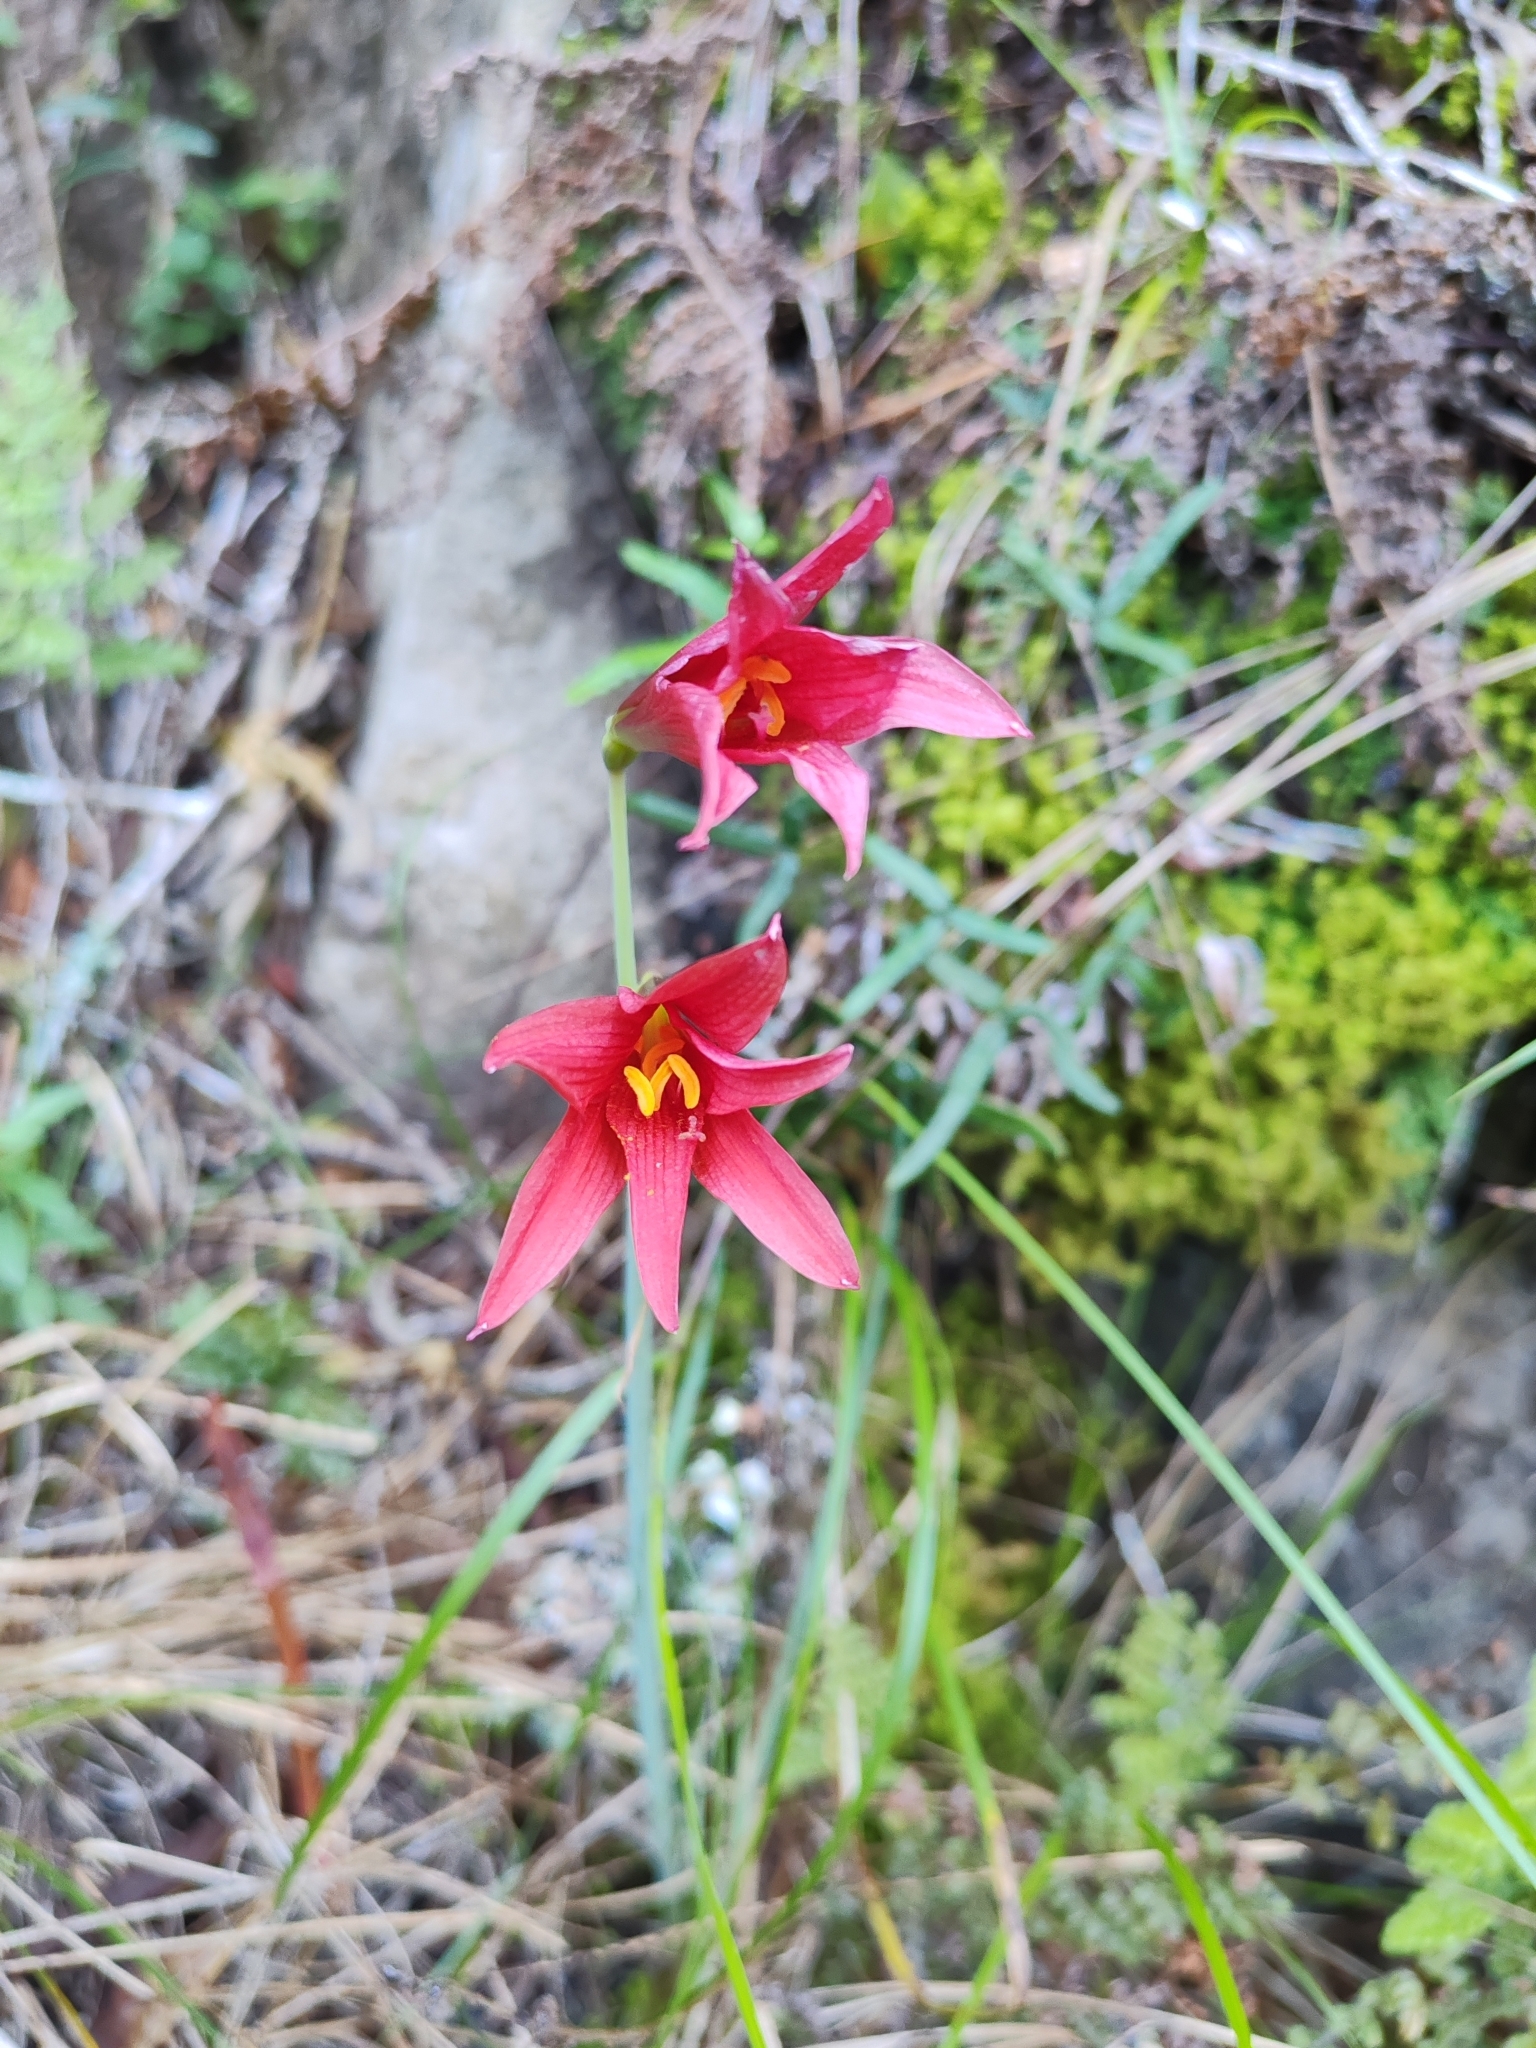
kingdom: Plantae
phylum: Tracheophyta
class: Liliopsida
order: Asparagales
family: Amaryllidaceae
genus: Zephyranthes
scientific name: Zephyranthes bifida
